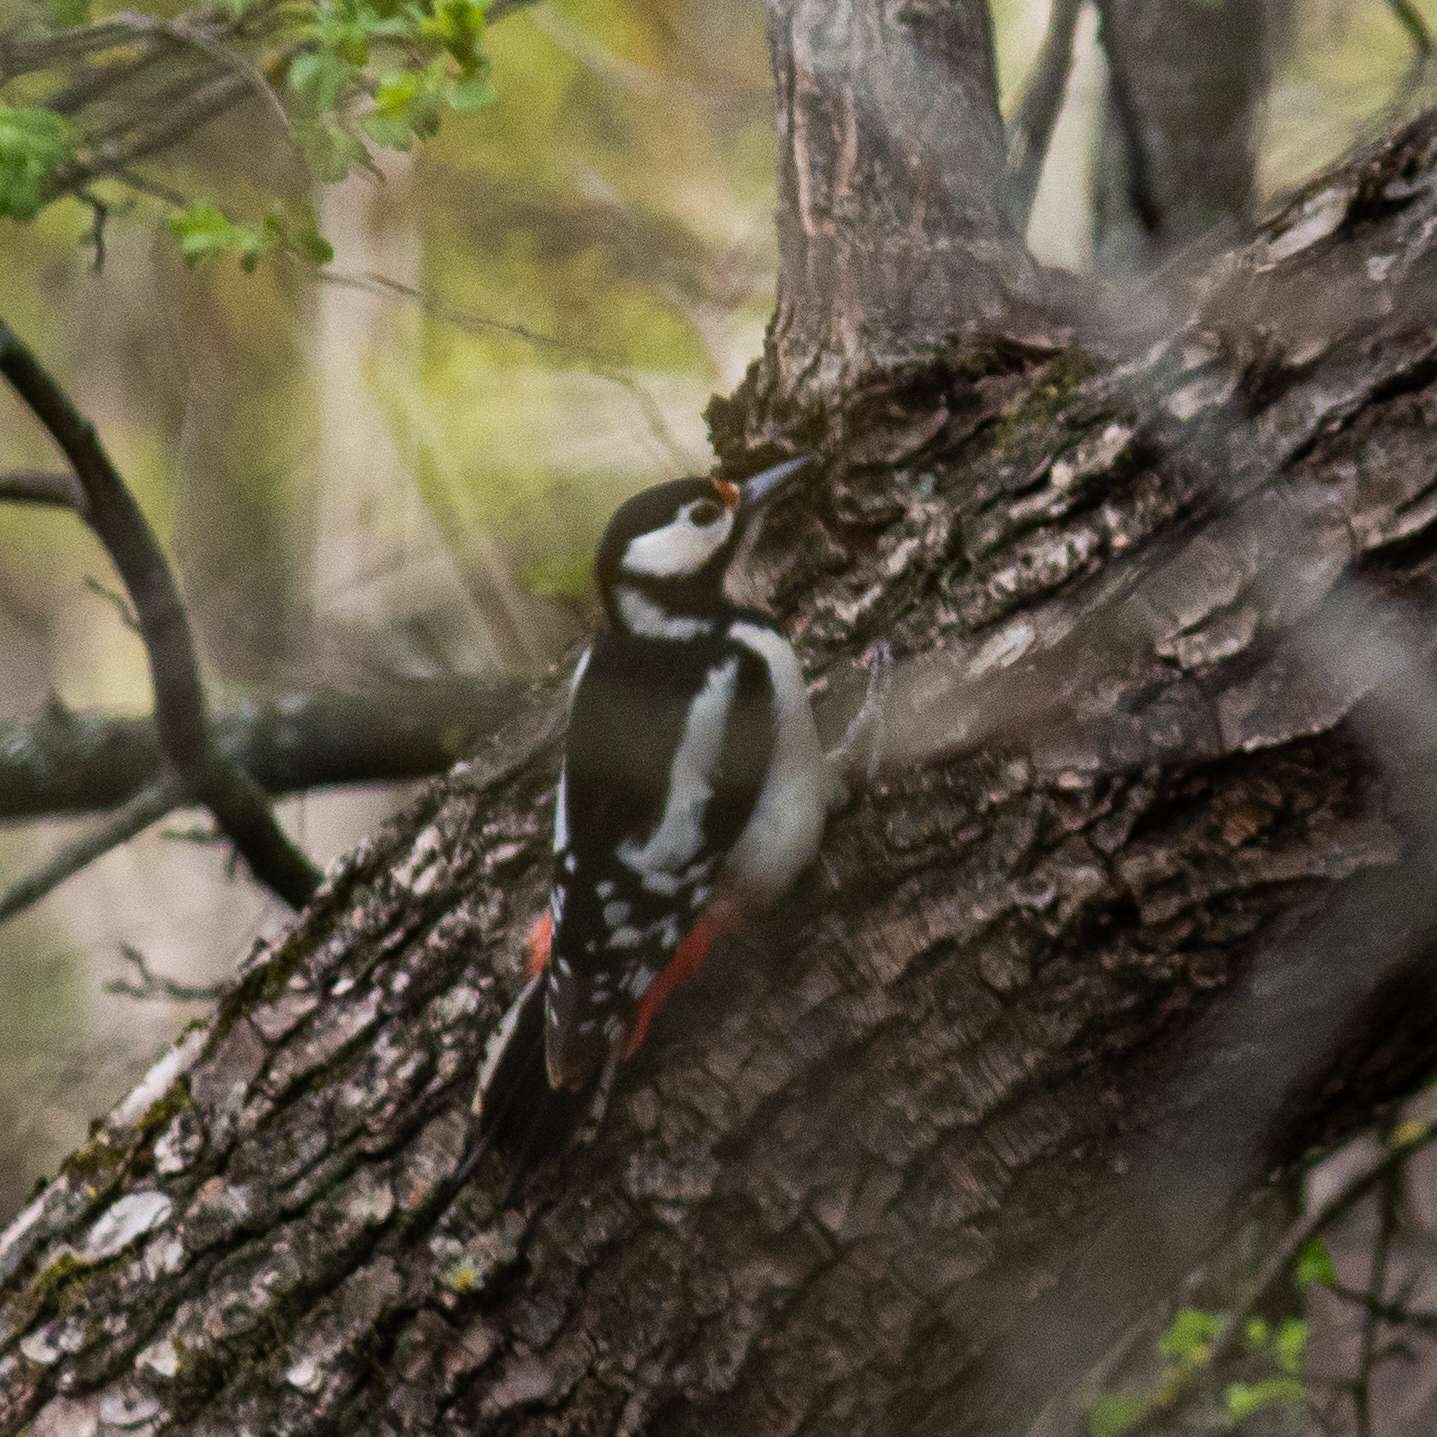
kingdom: Animalia
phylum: Chordata
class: Aves
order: Piciformes
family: Picidae
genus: Dendrocopos
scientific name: Dendrocopos major
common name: Great spotted woodpecker
